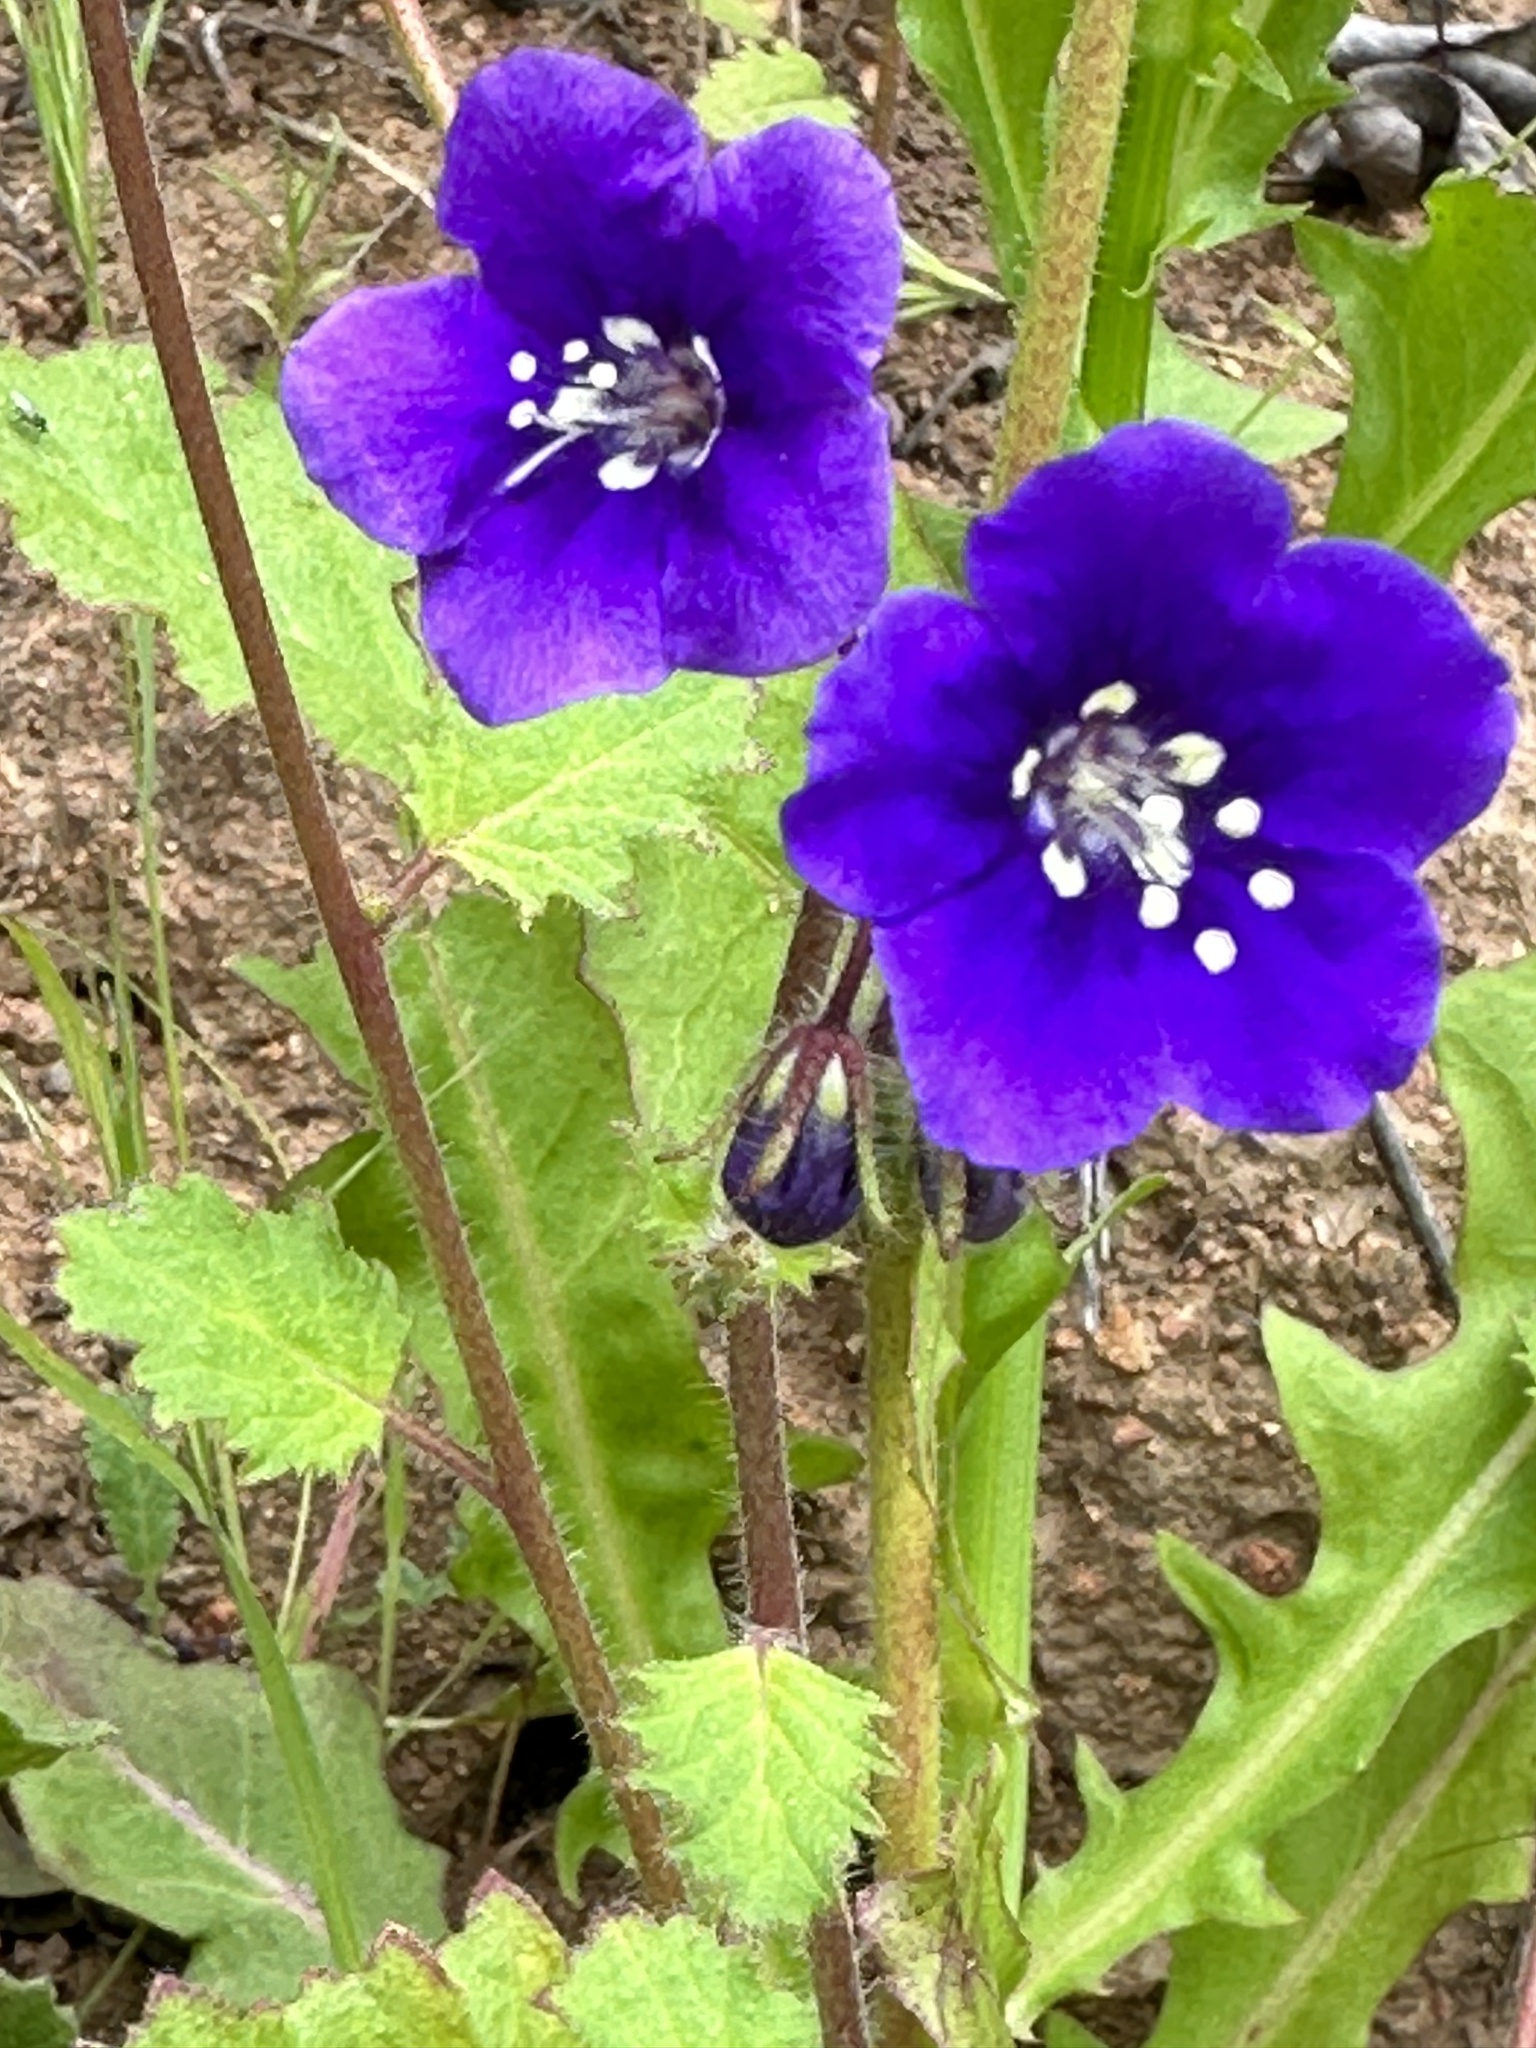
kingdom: Plantae
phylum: Tracheophyta
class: Magnoliopsida
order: Boraginales
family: Hydrophyllaceae
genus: Phacelia
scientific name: Phacelia parryi
